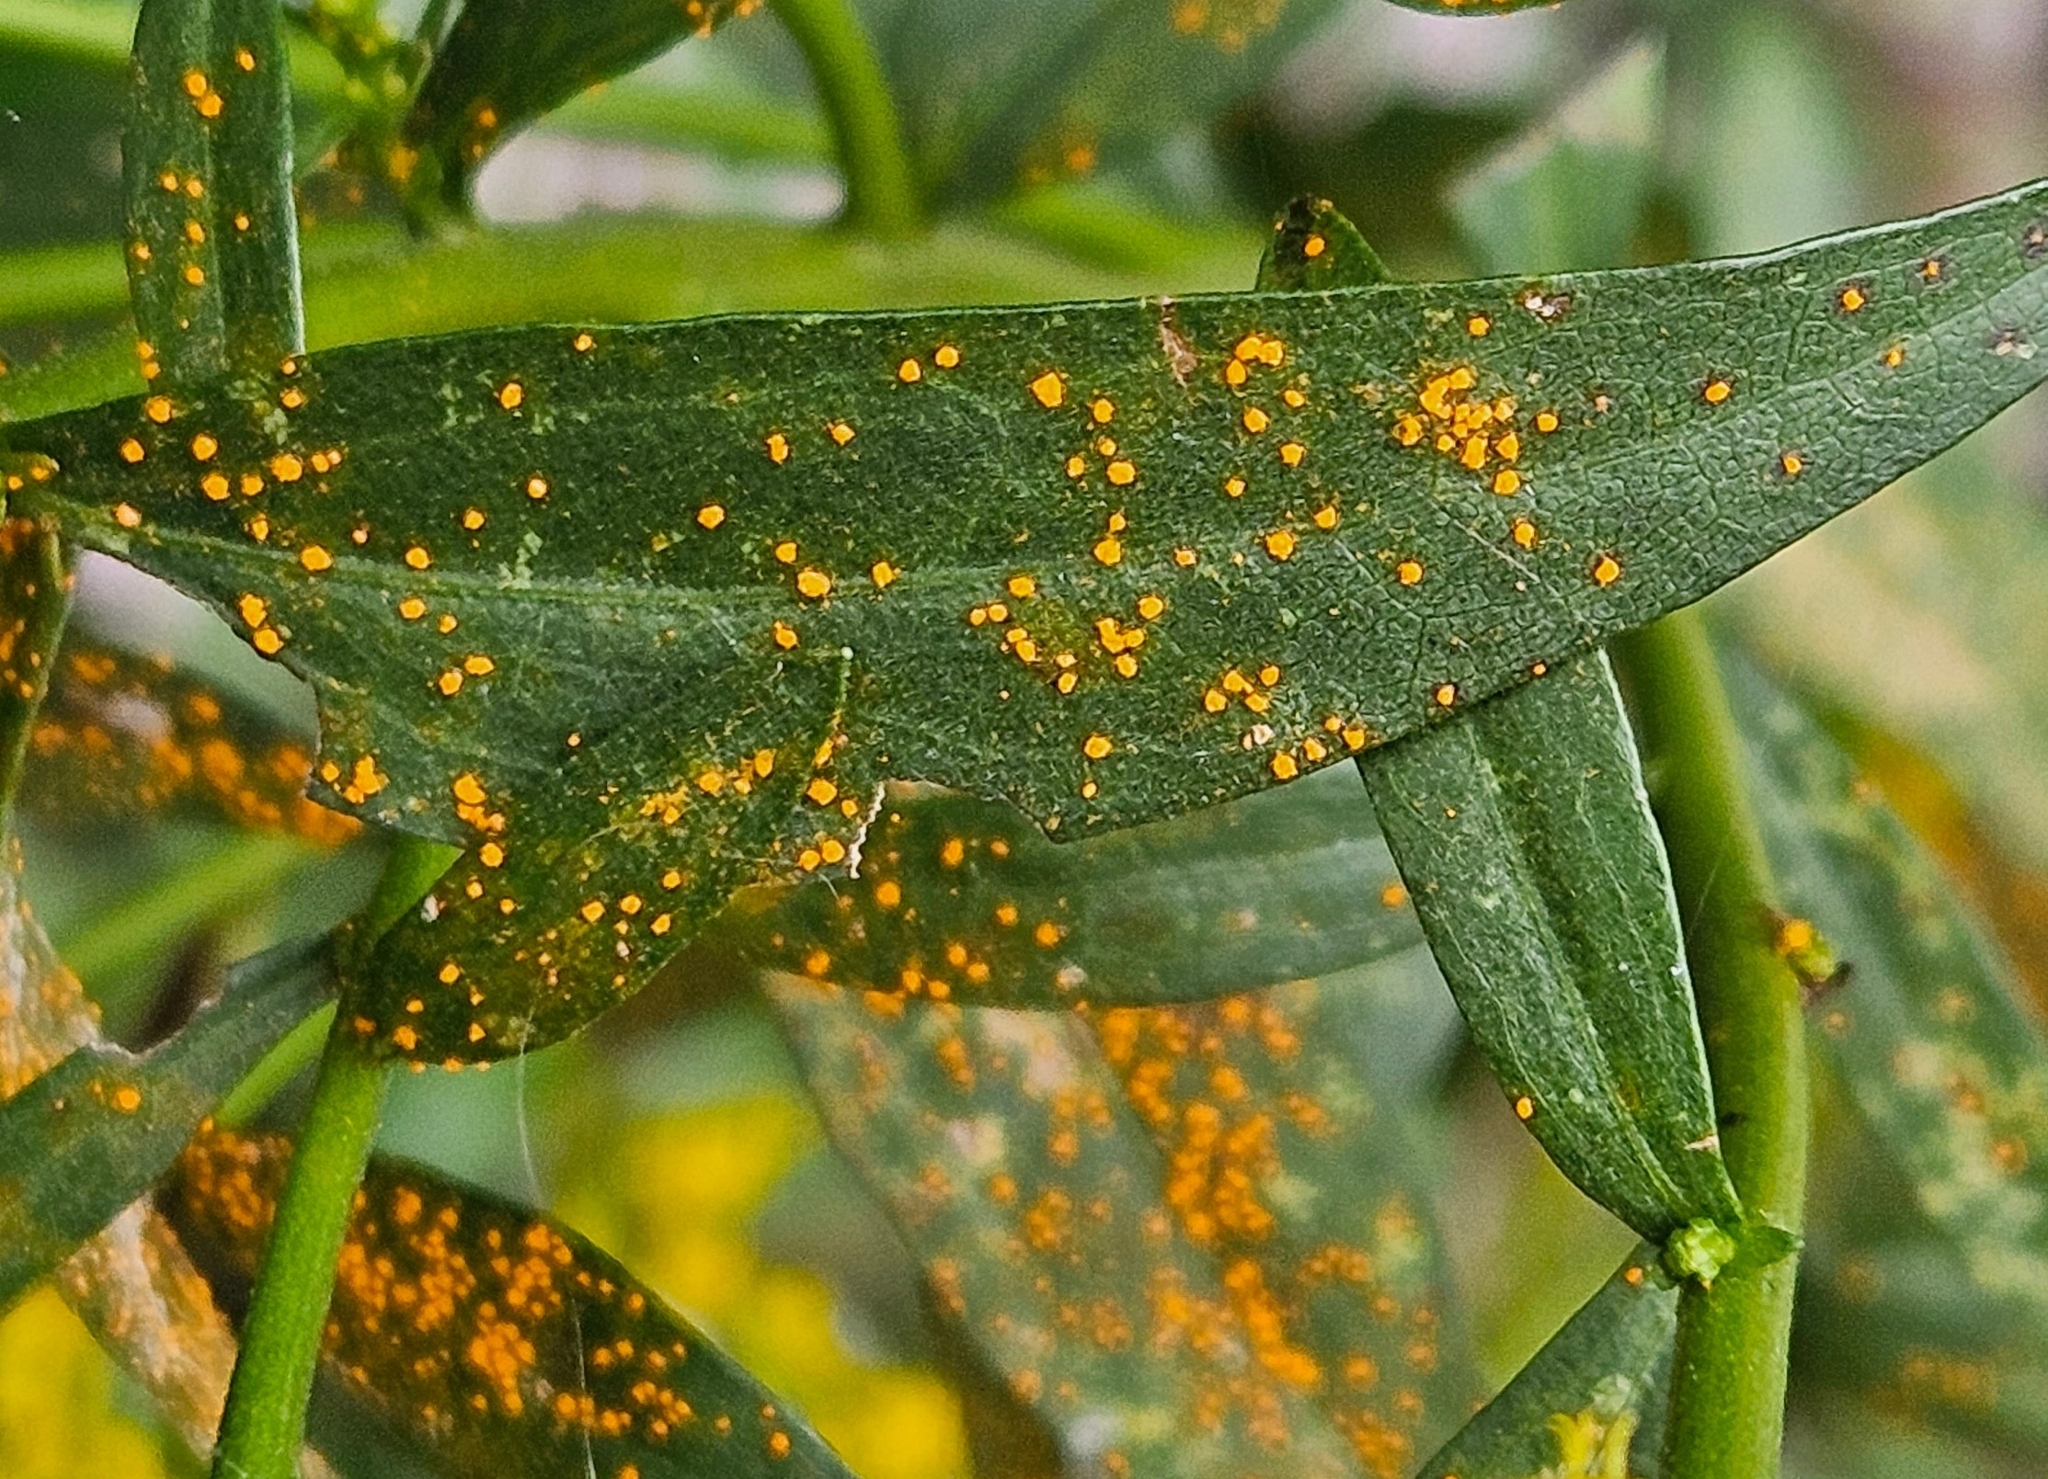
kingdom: Fungi
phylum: Basidiomycota
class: Pucciniomycetes
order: Pucciniales
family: Coleosporiaceae
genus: Coleosporium
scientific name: Coleosporium asterum
